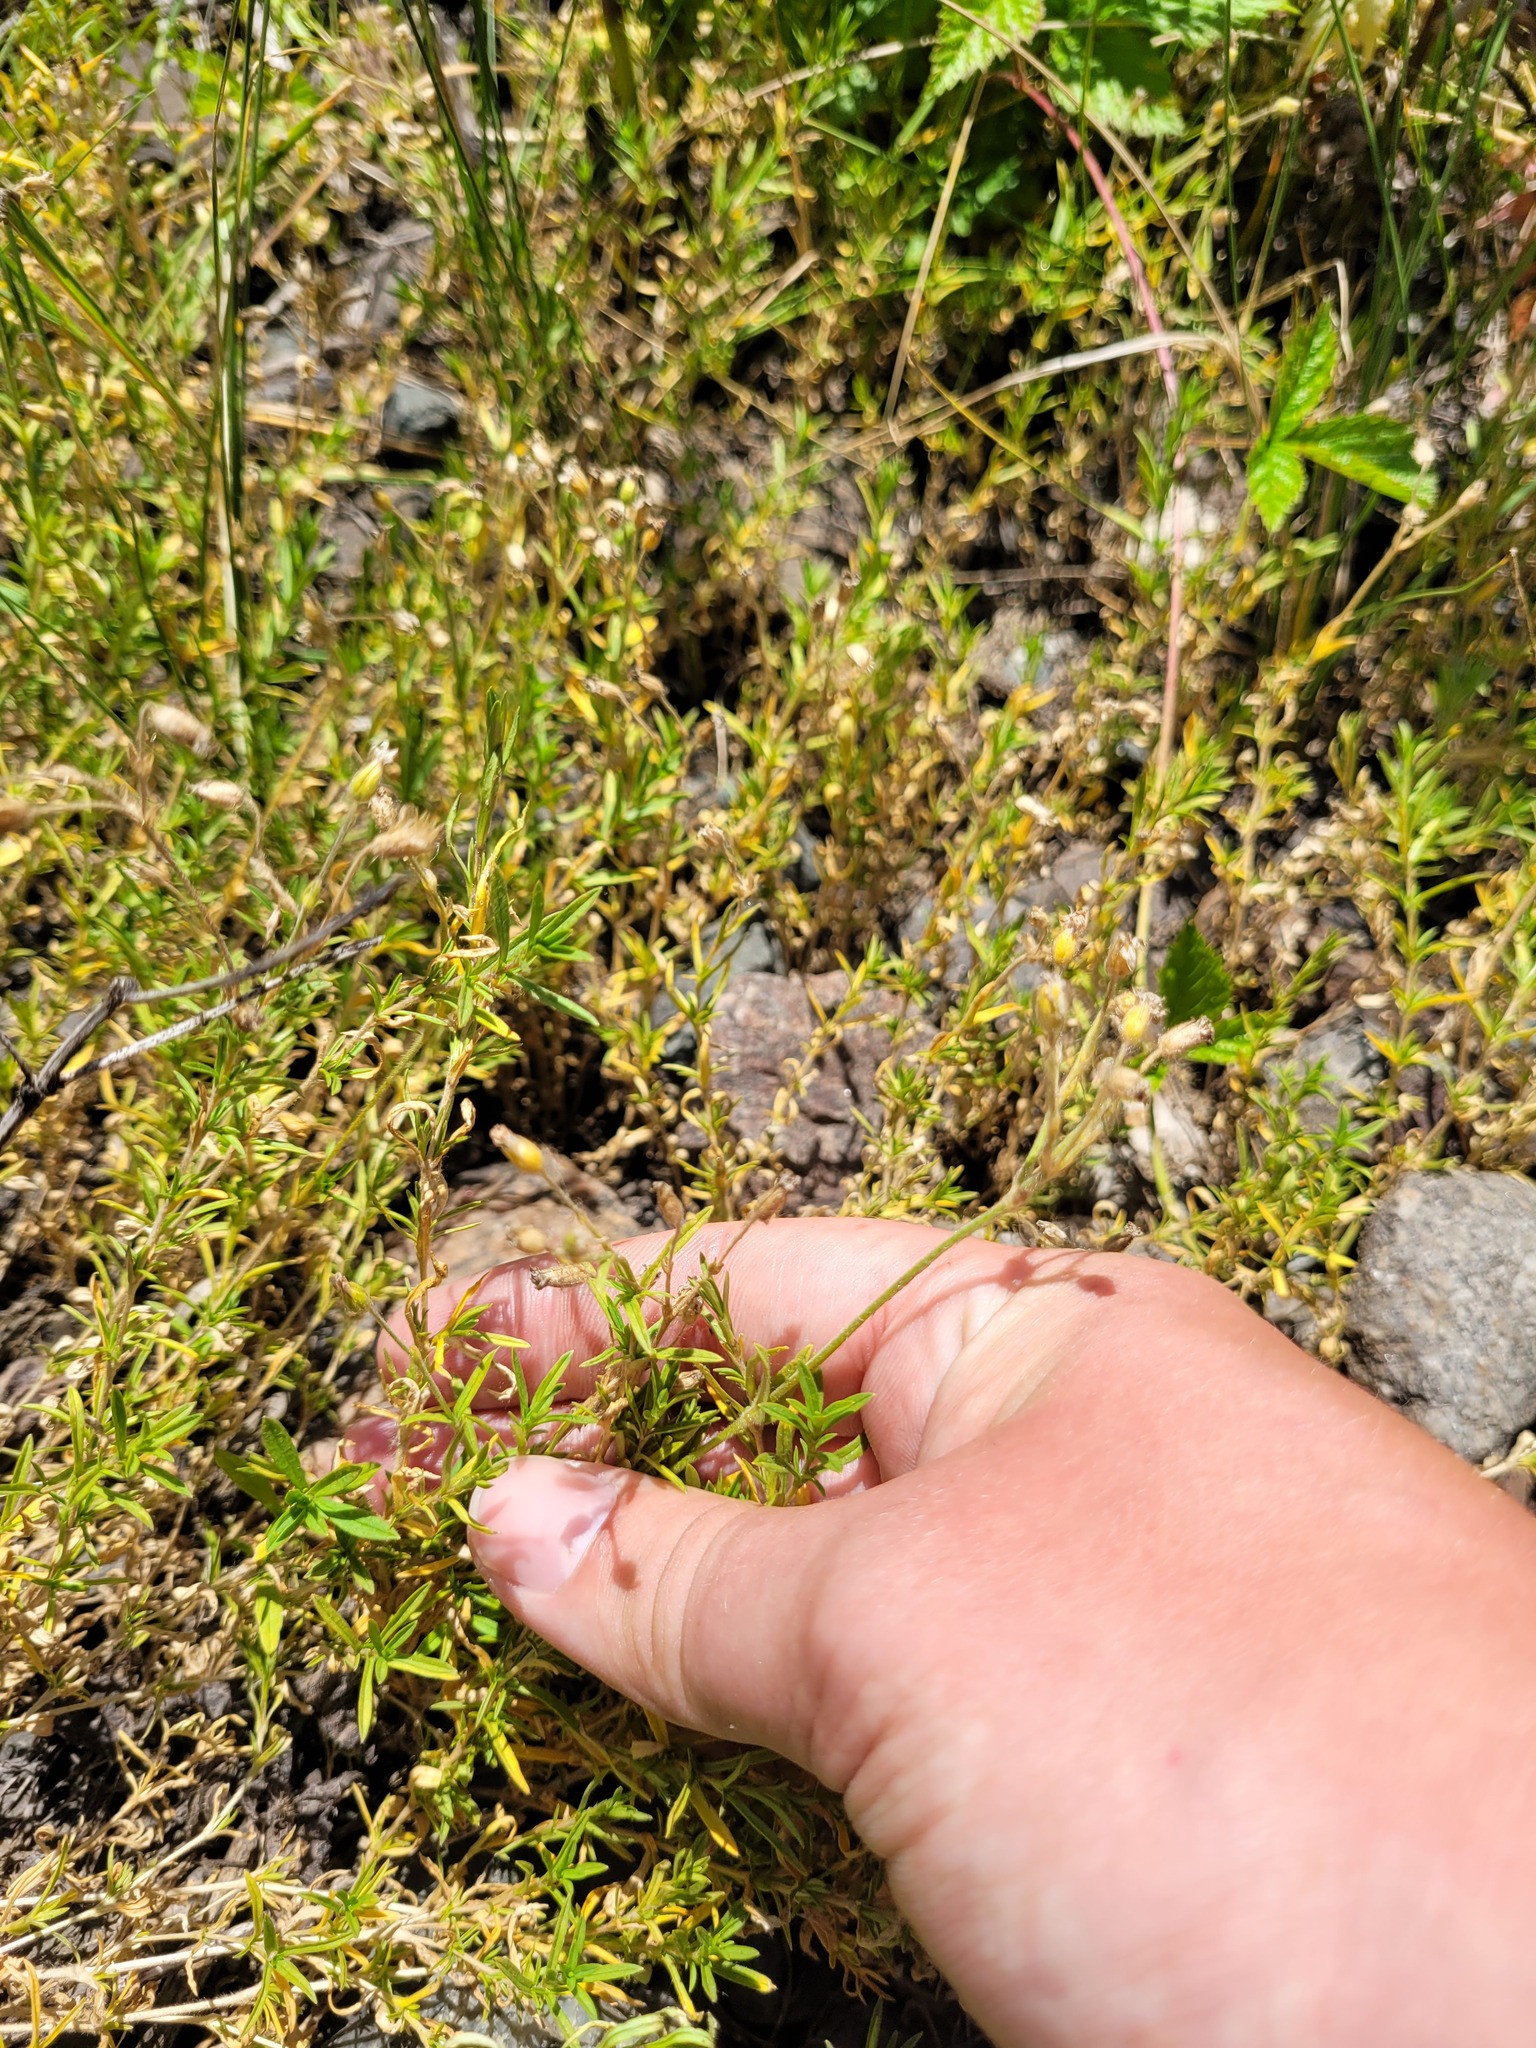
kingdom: Plantae
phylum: Tracheophyta
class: Magnoliopsida
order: Caryophyllales
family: Caryophyllaceae
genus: Cerastium
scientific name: Cerastium arvense
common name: Field mouse-ear
